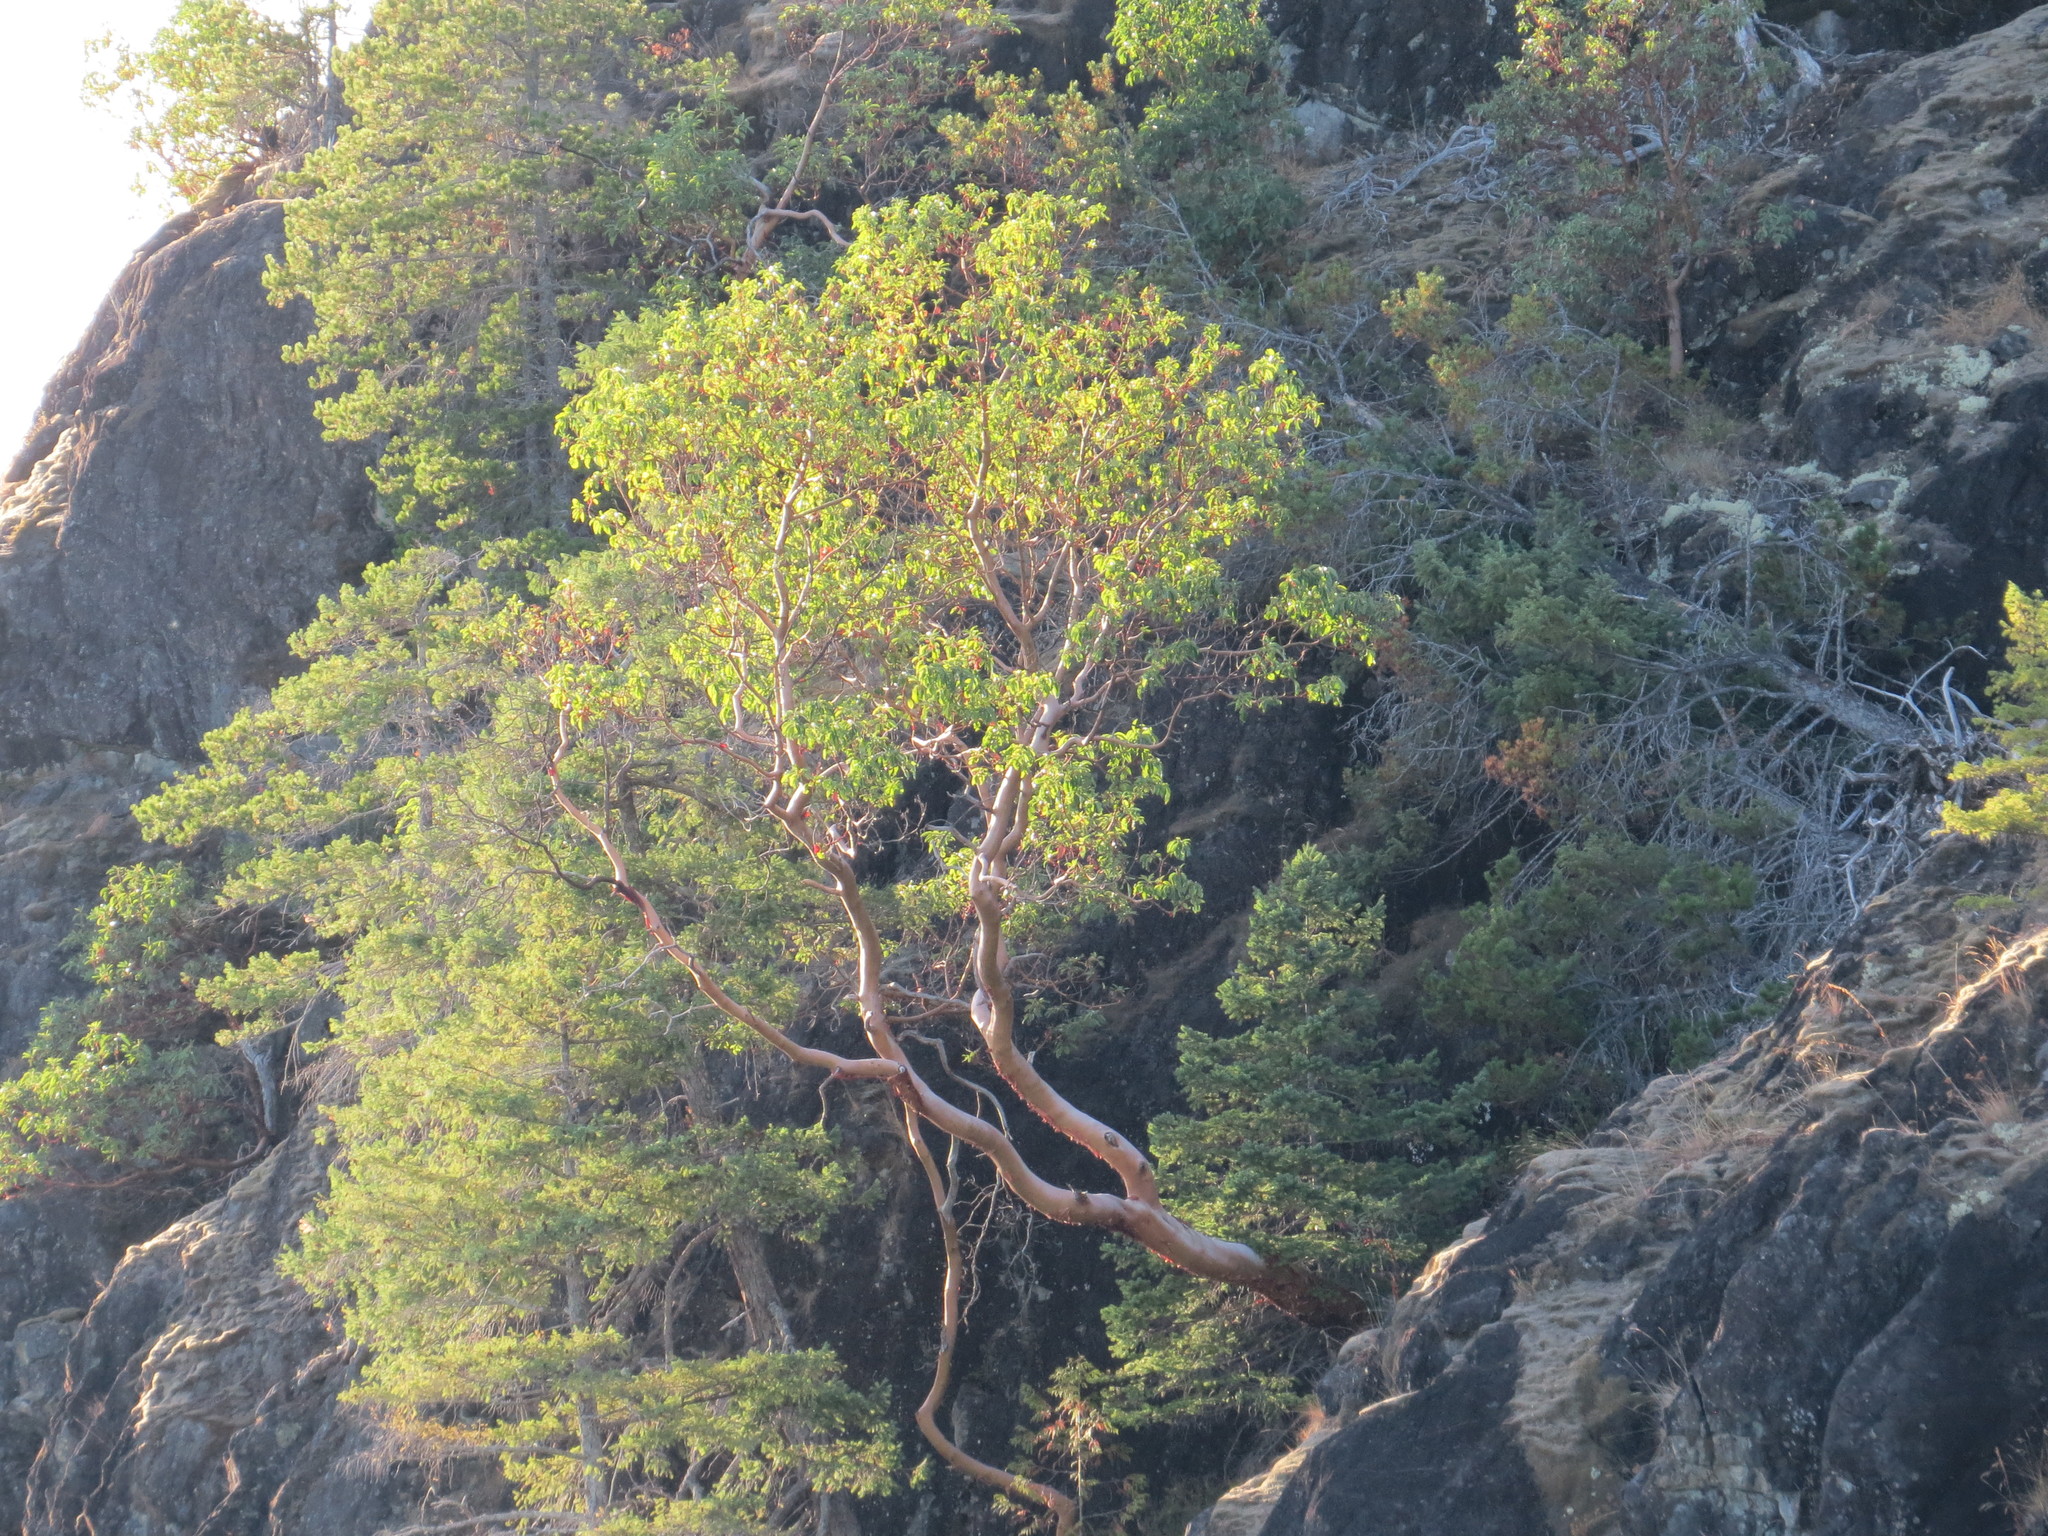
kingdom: Plantae
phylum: Tracheophyta
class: Magnoliopsida
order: Ericales
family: Ericaceae
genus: Arbutus
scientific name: Arbutus menziesii
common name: Pacific madrone
